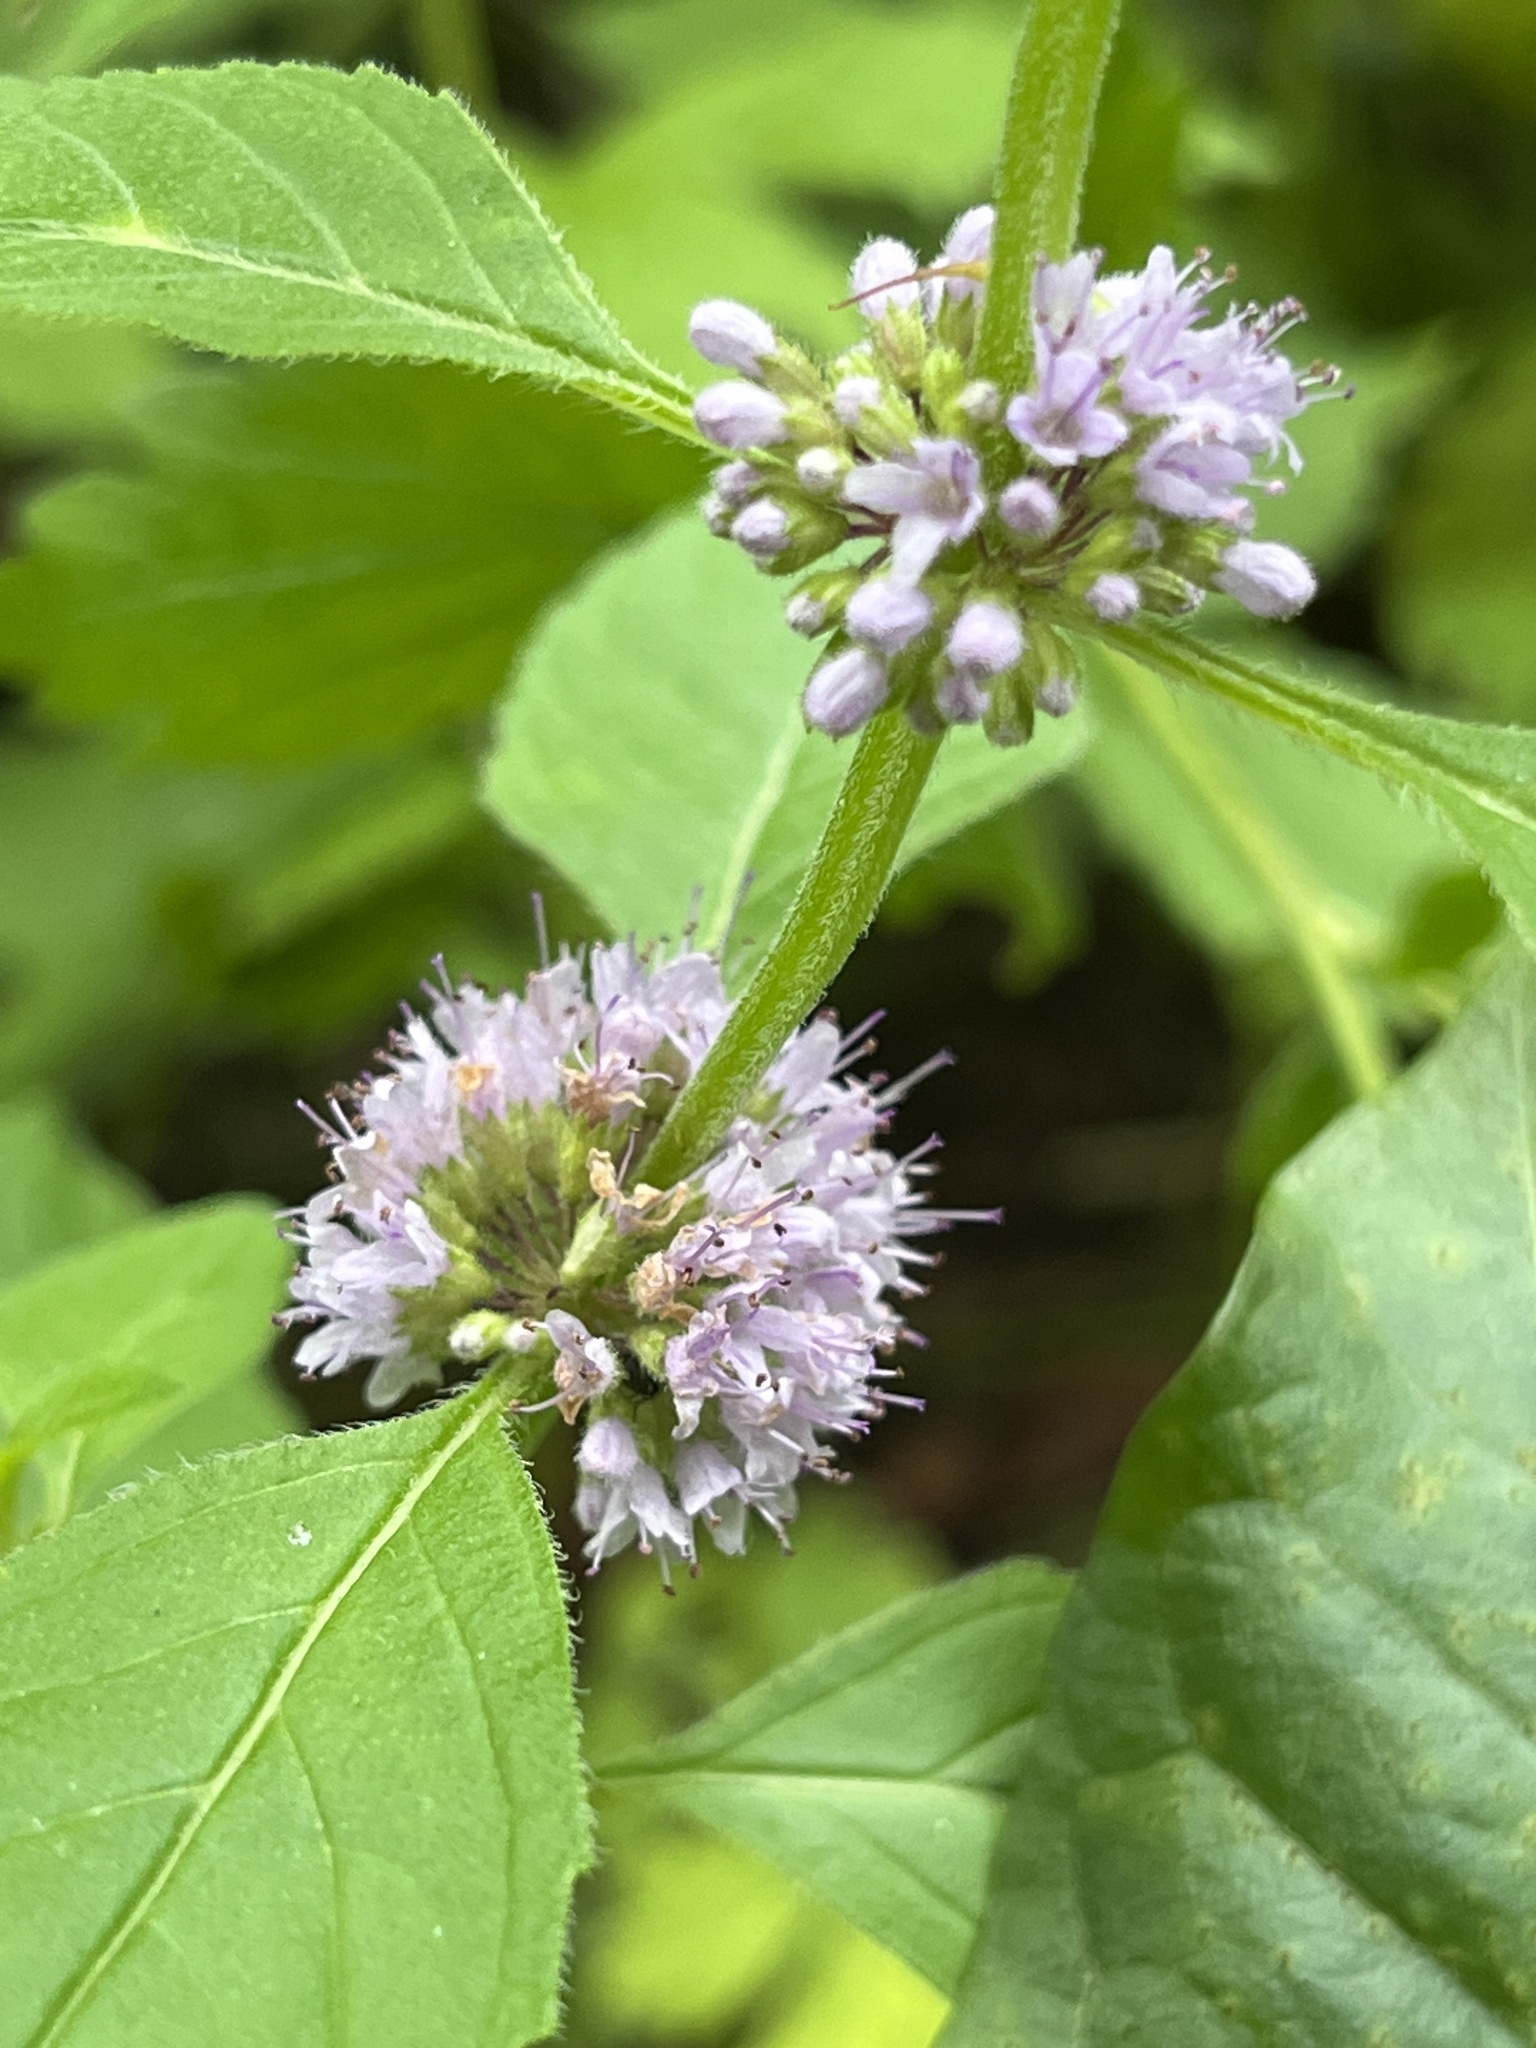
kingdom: Plantae
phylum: Tracheophyta
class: Magnoliopsida
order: Lamiales
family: Lamiaceae
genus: Mentha
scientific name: Mentha arvensis
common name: Corn mint
